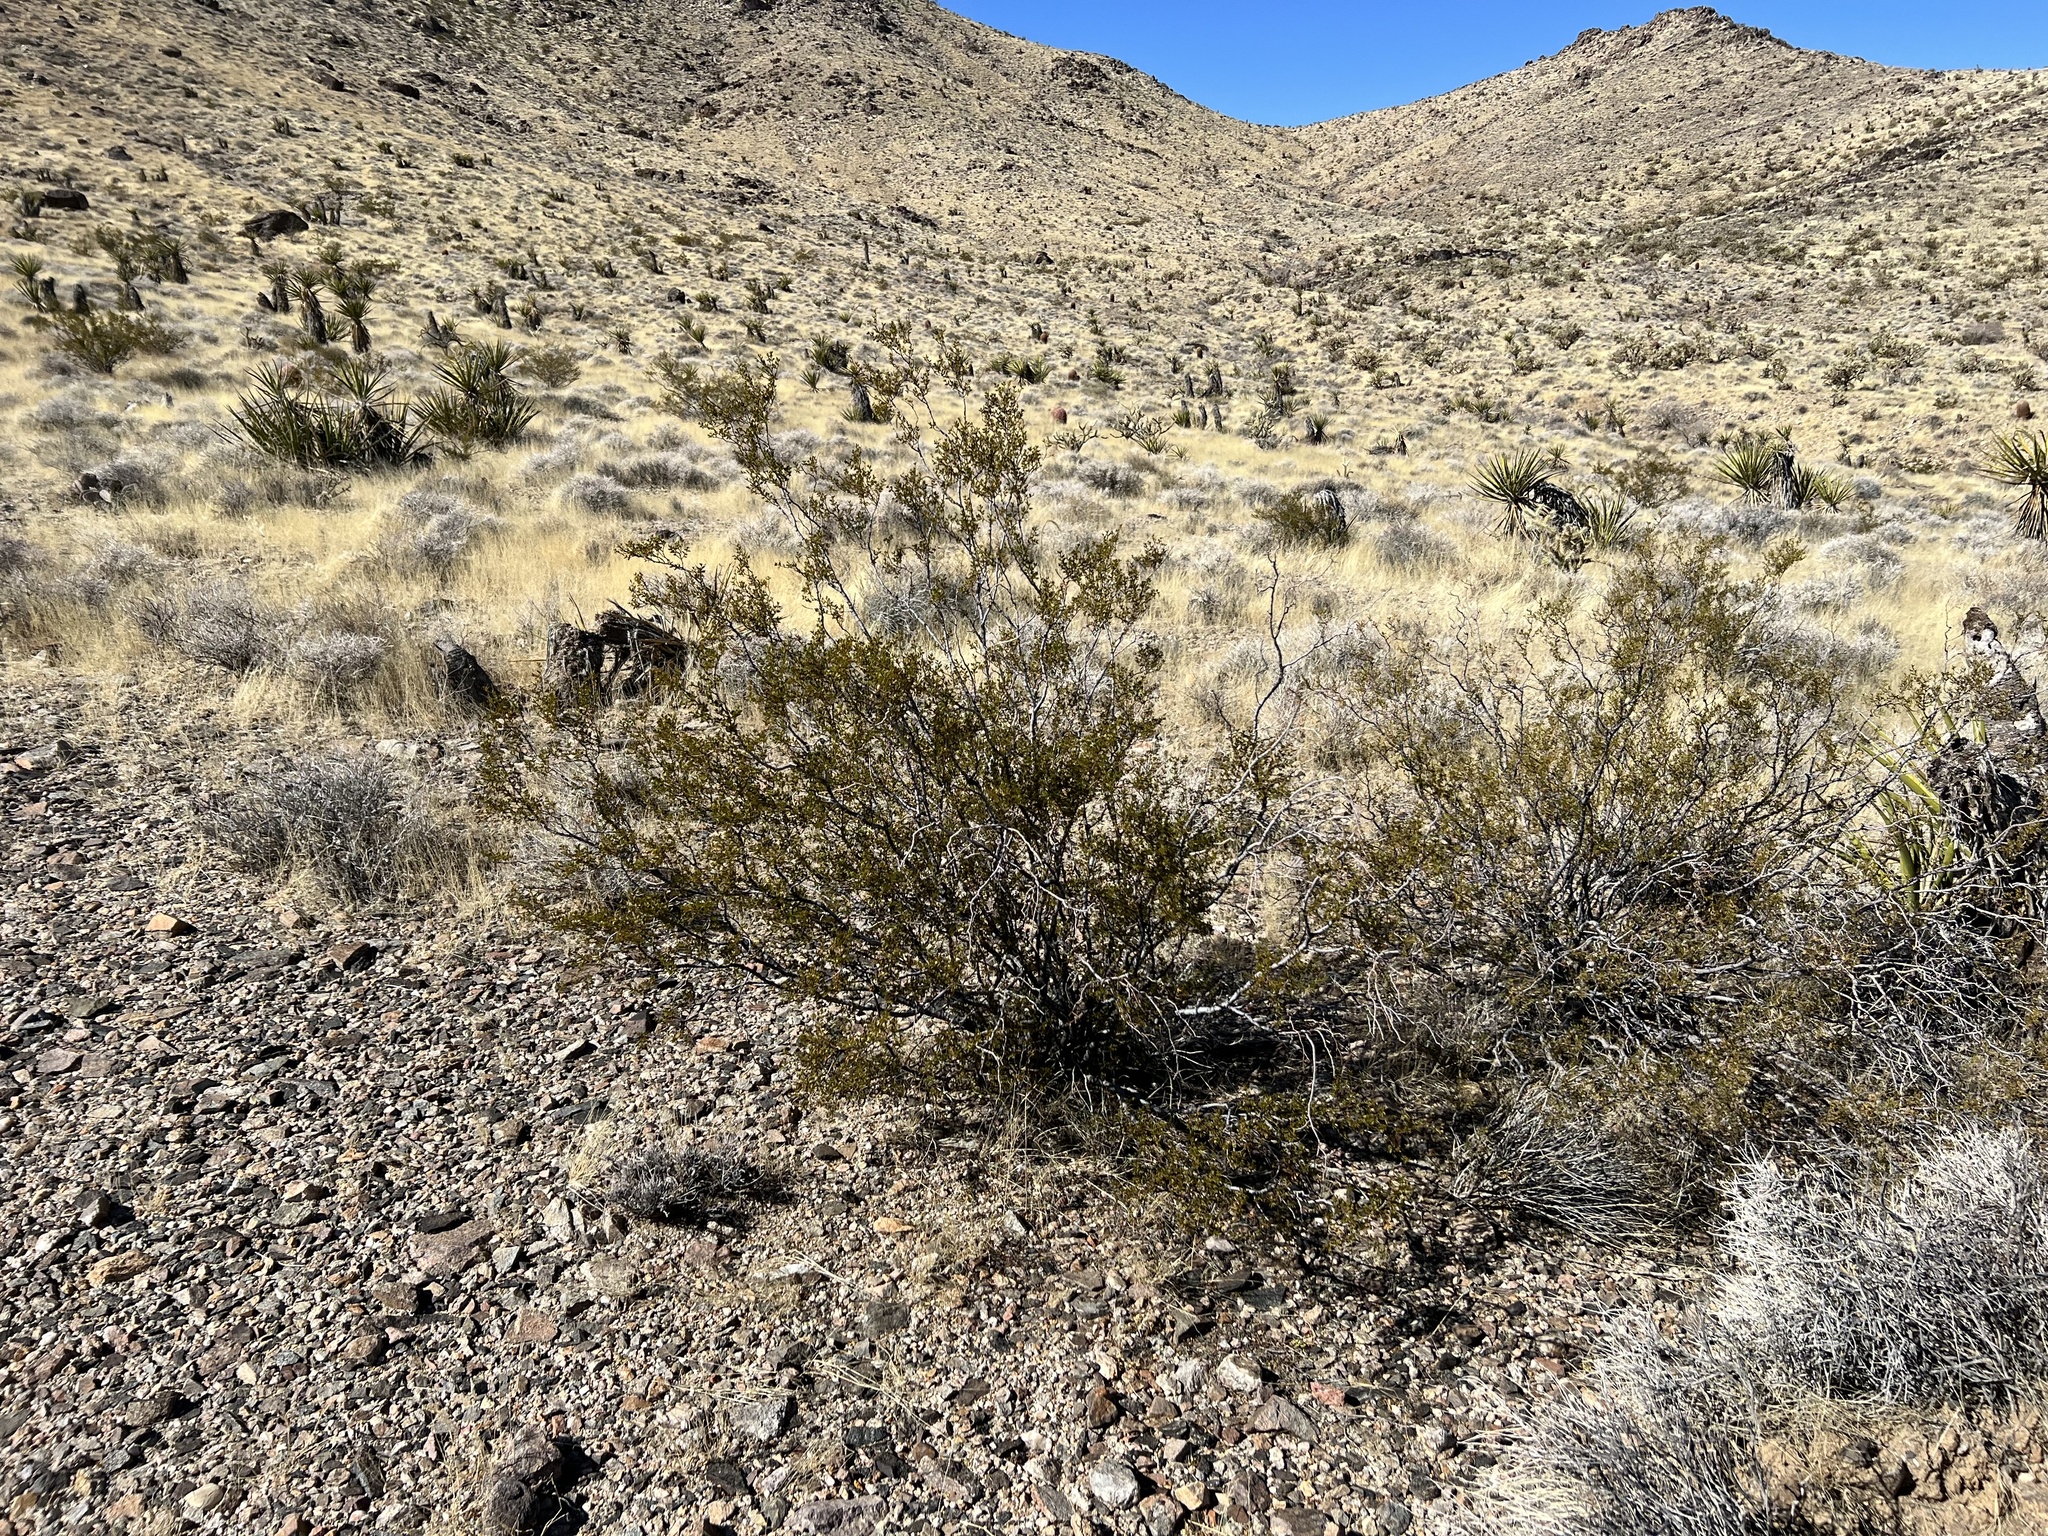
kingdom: Plantae
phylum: Tracheophyta
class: Magnoliopsida
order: Zygophyllales
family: Zygophyllaceae
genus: Larrea
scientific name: Larrea tridentata
